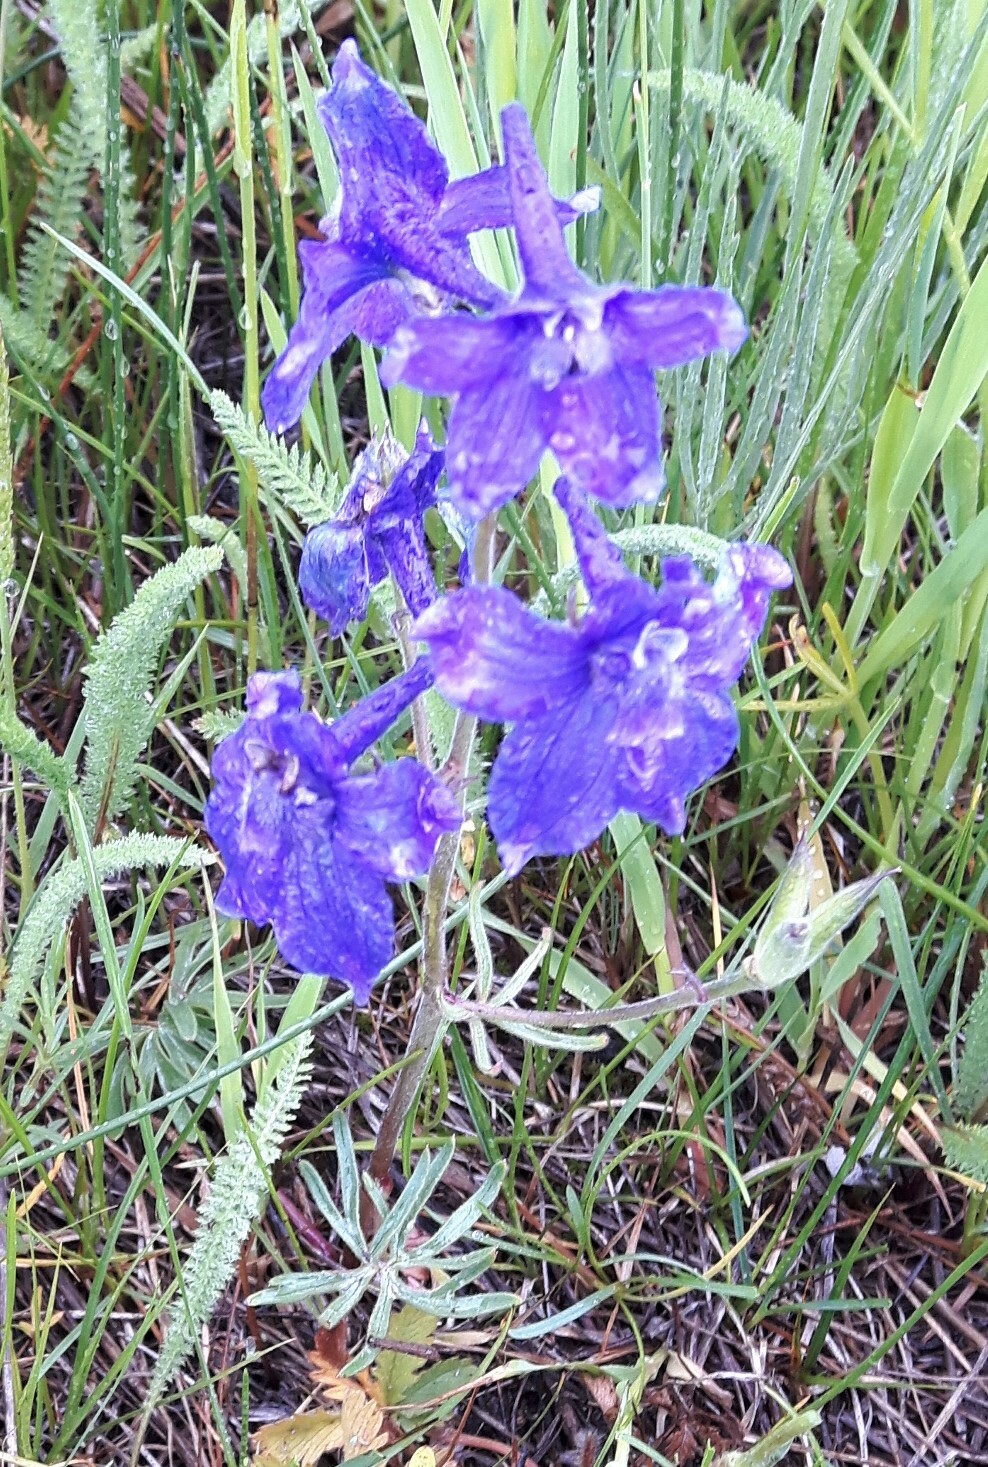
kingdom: Plantae
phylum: Tracheophyta
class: Magnoliopsida
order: Ranunculales
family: Ranunculaceae
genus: Delphinium
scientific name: Delphinium bicolor
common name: Low larkspur
